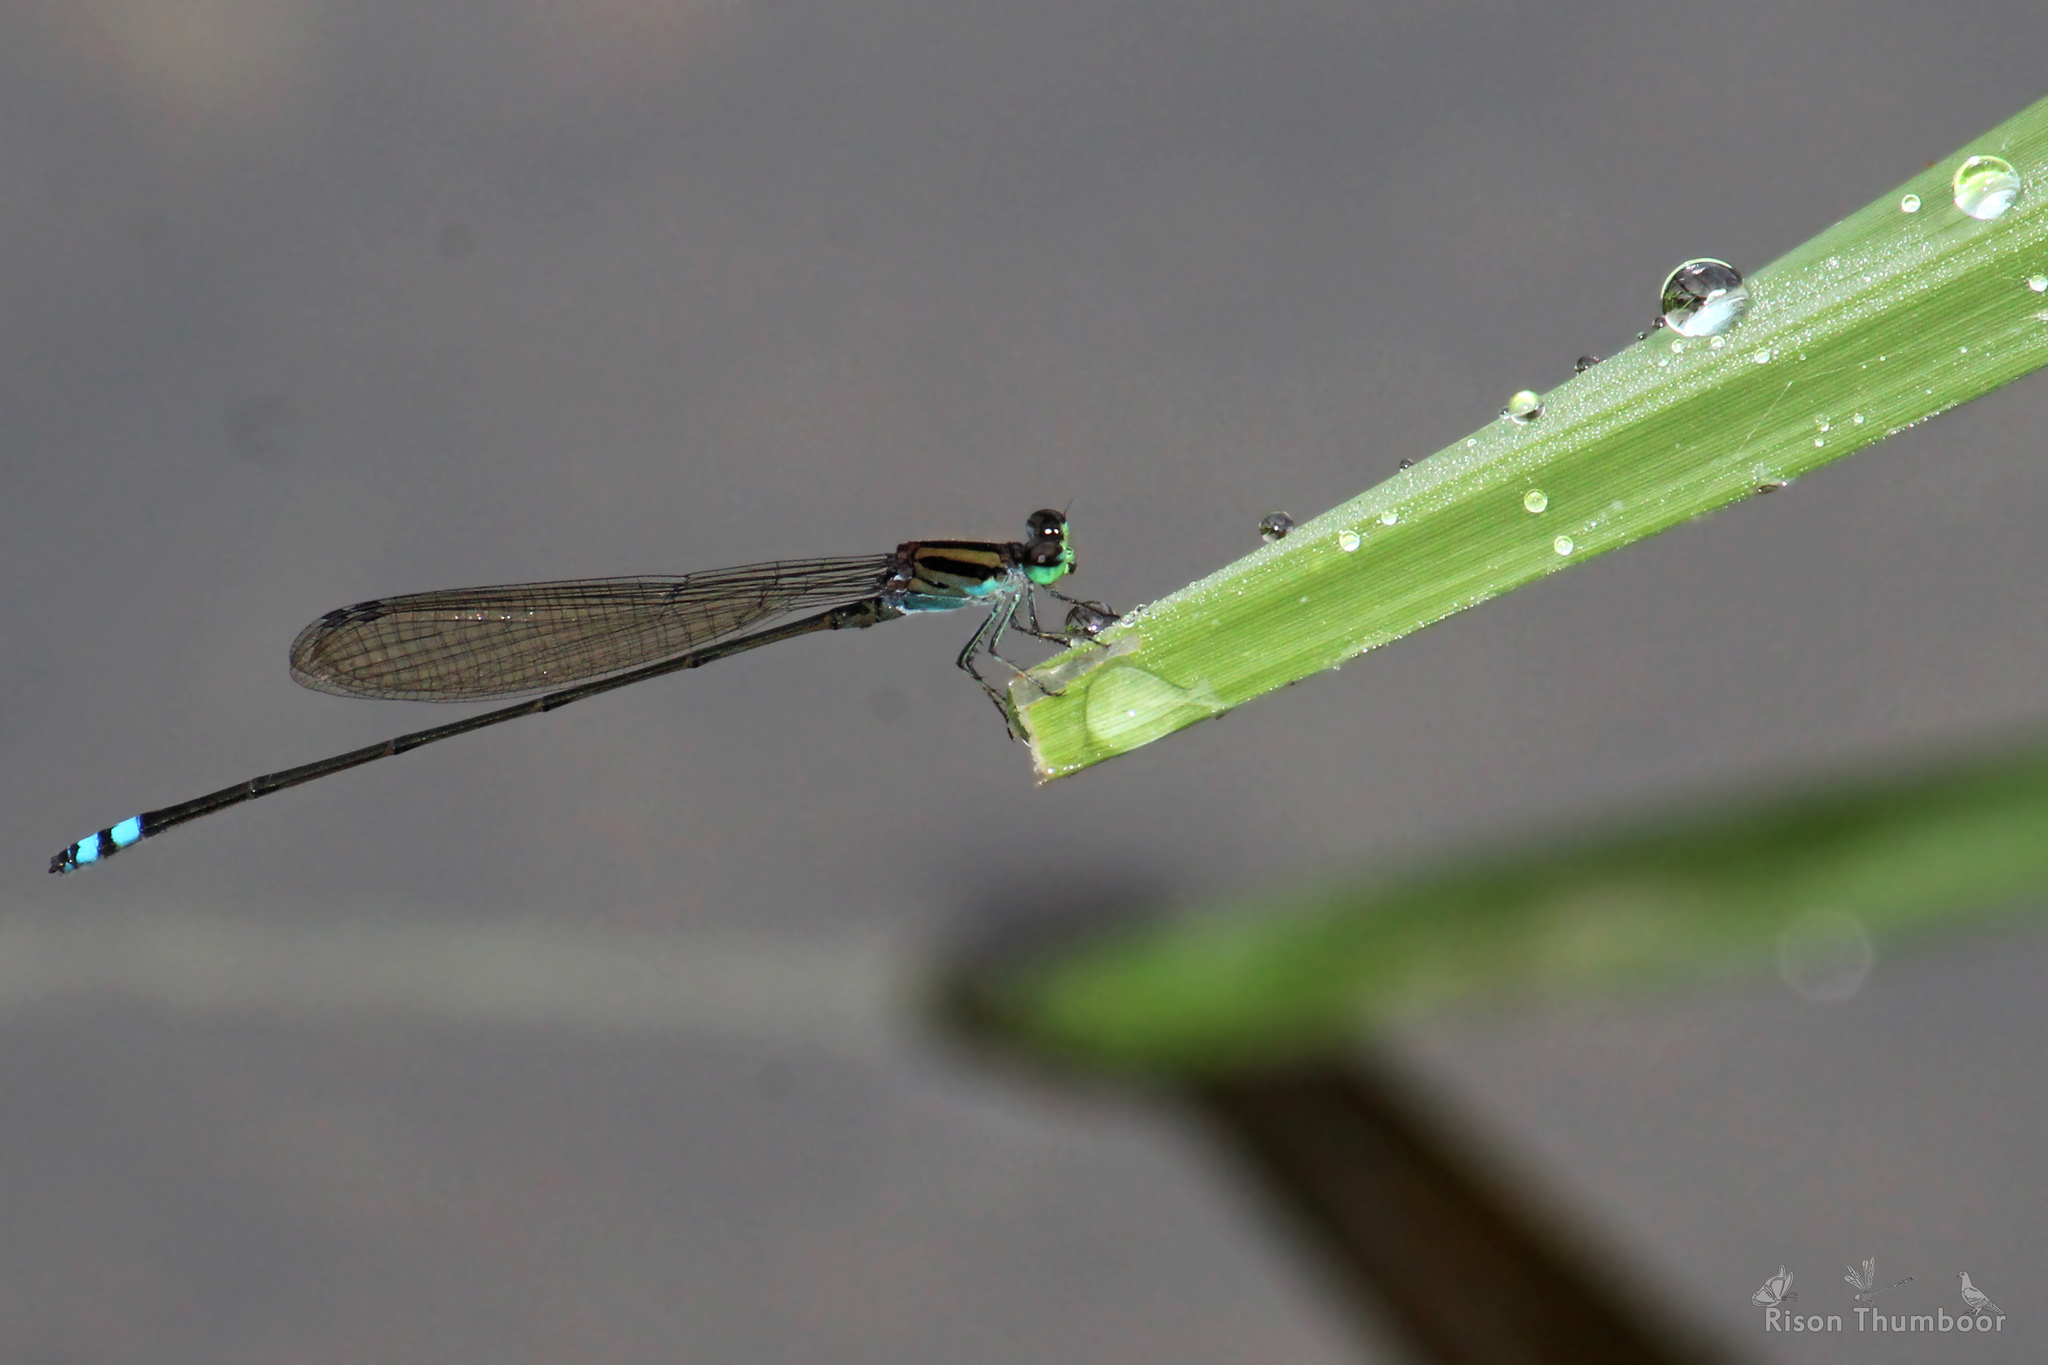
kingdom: Animalia
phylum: Arthropoda
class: Insecta
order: Odonata
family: Coenagrionidae
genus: Pseudagrion
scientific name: Pseudagrion indicum
